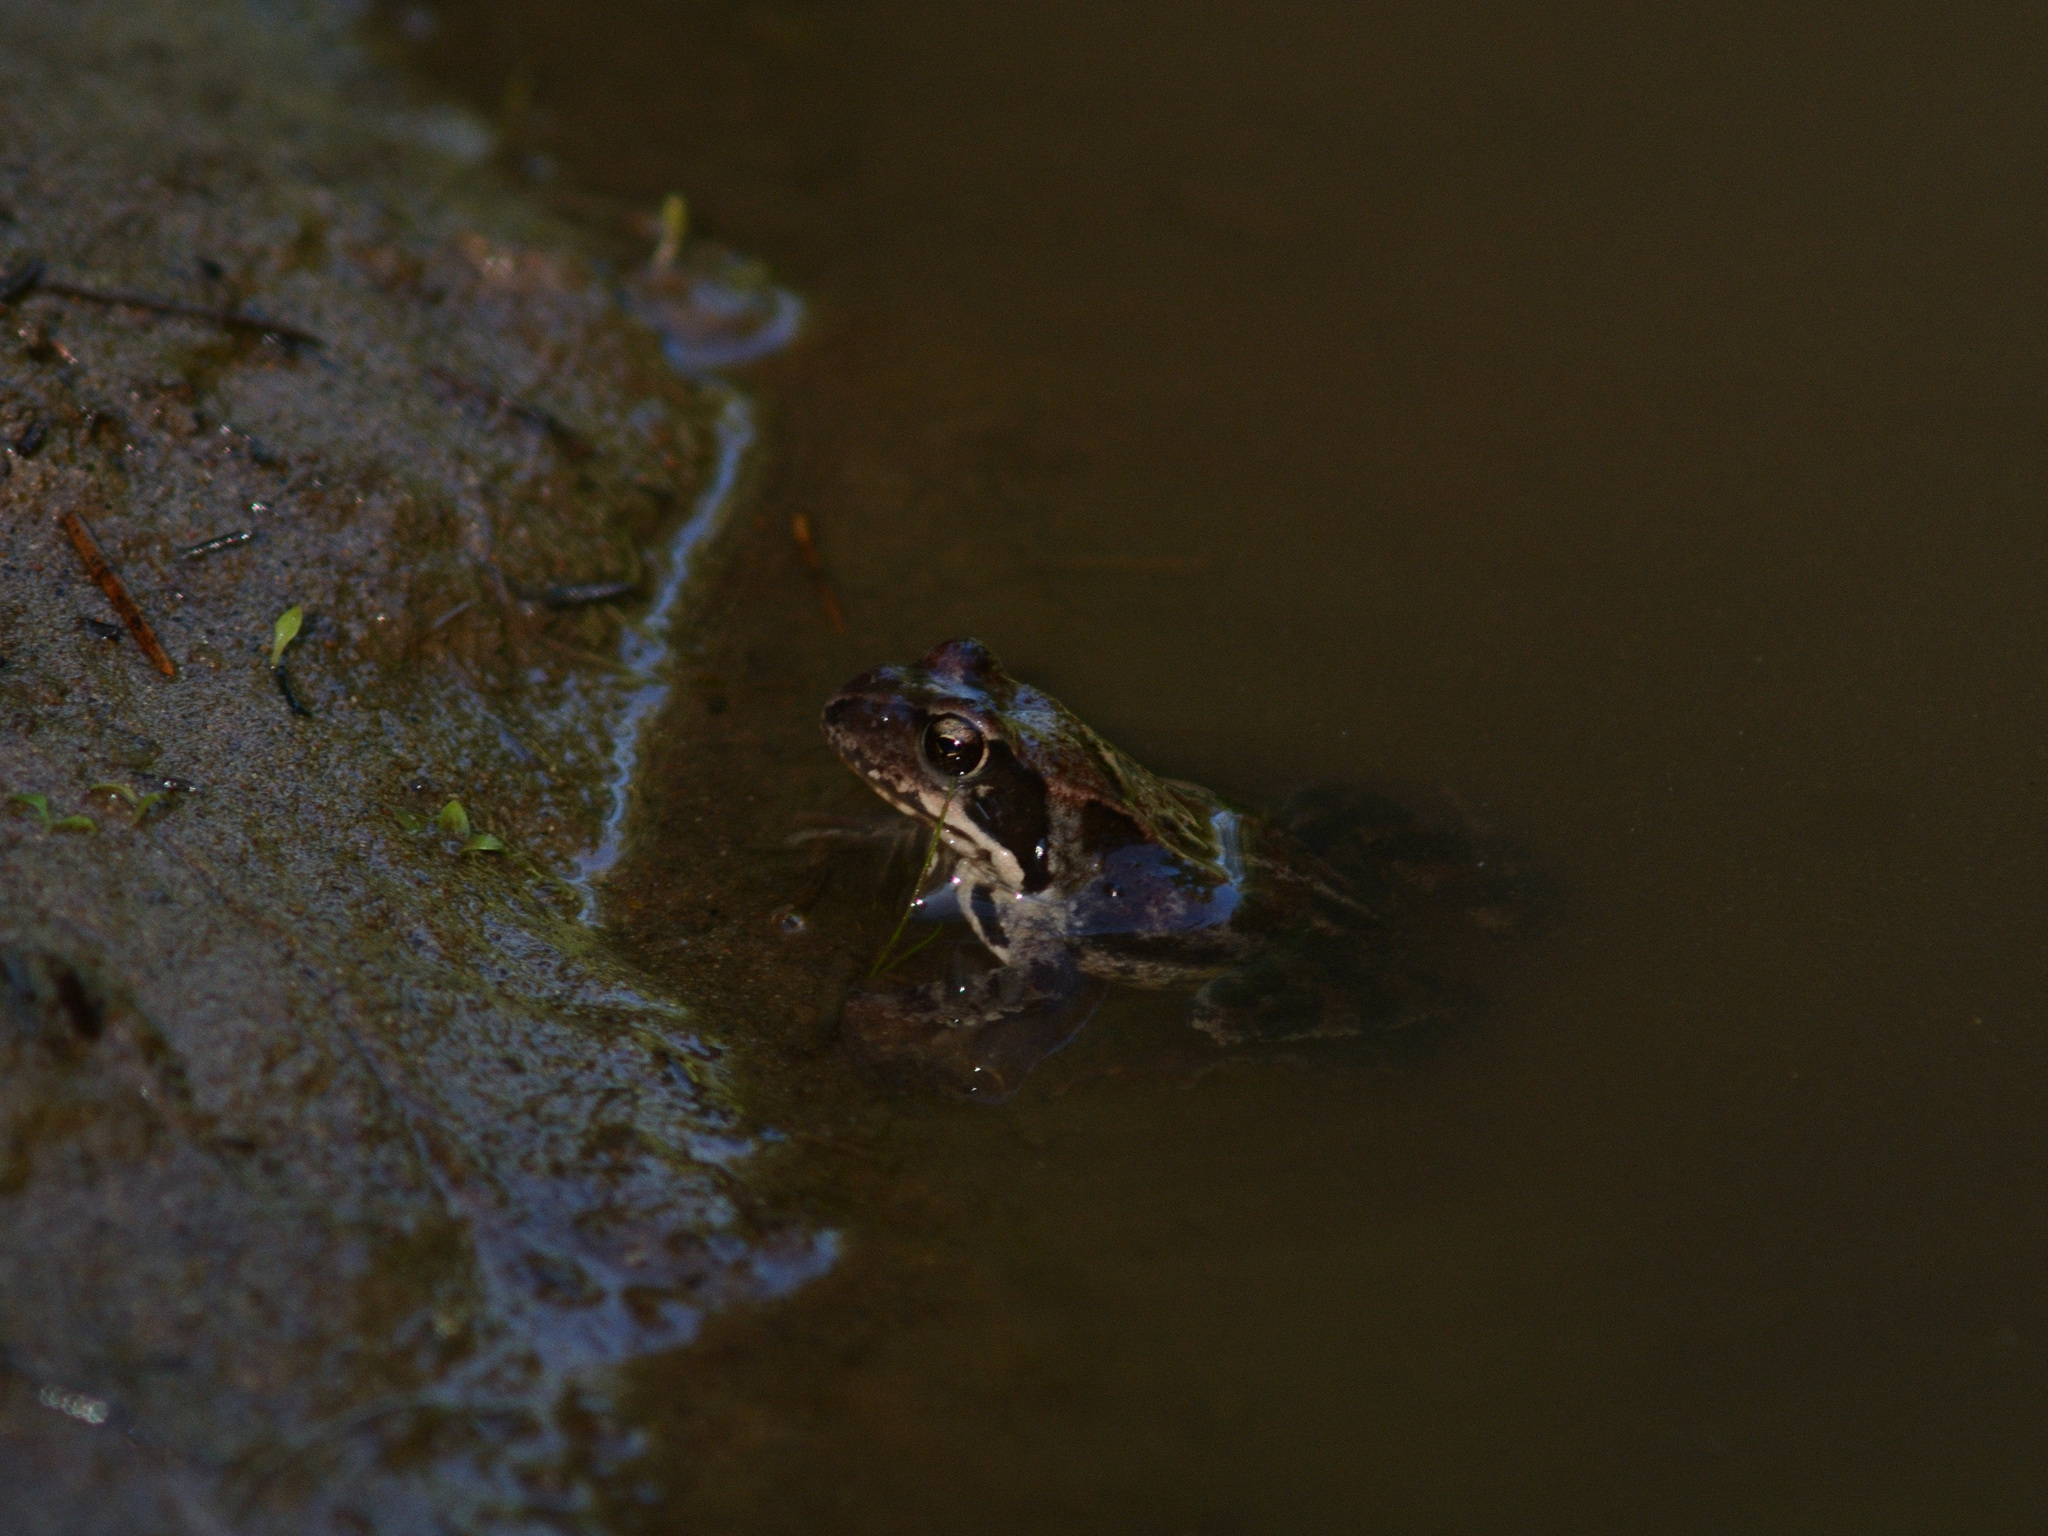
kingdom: Animalia
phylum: Chordata
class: Amphibia
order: Anura
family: Ranidae
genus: Rana
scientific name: Rana temporaria
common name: Common frog
